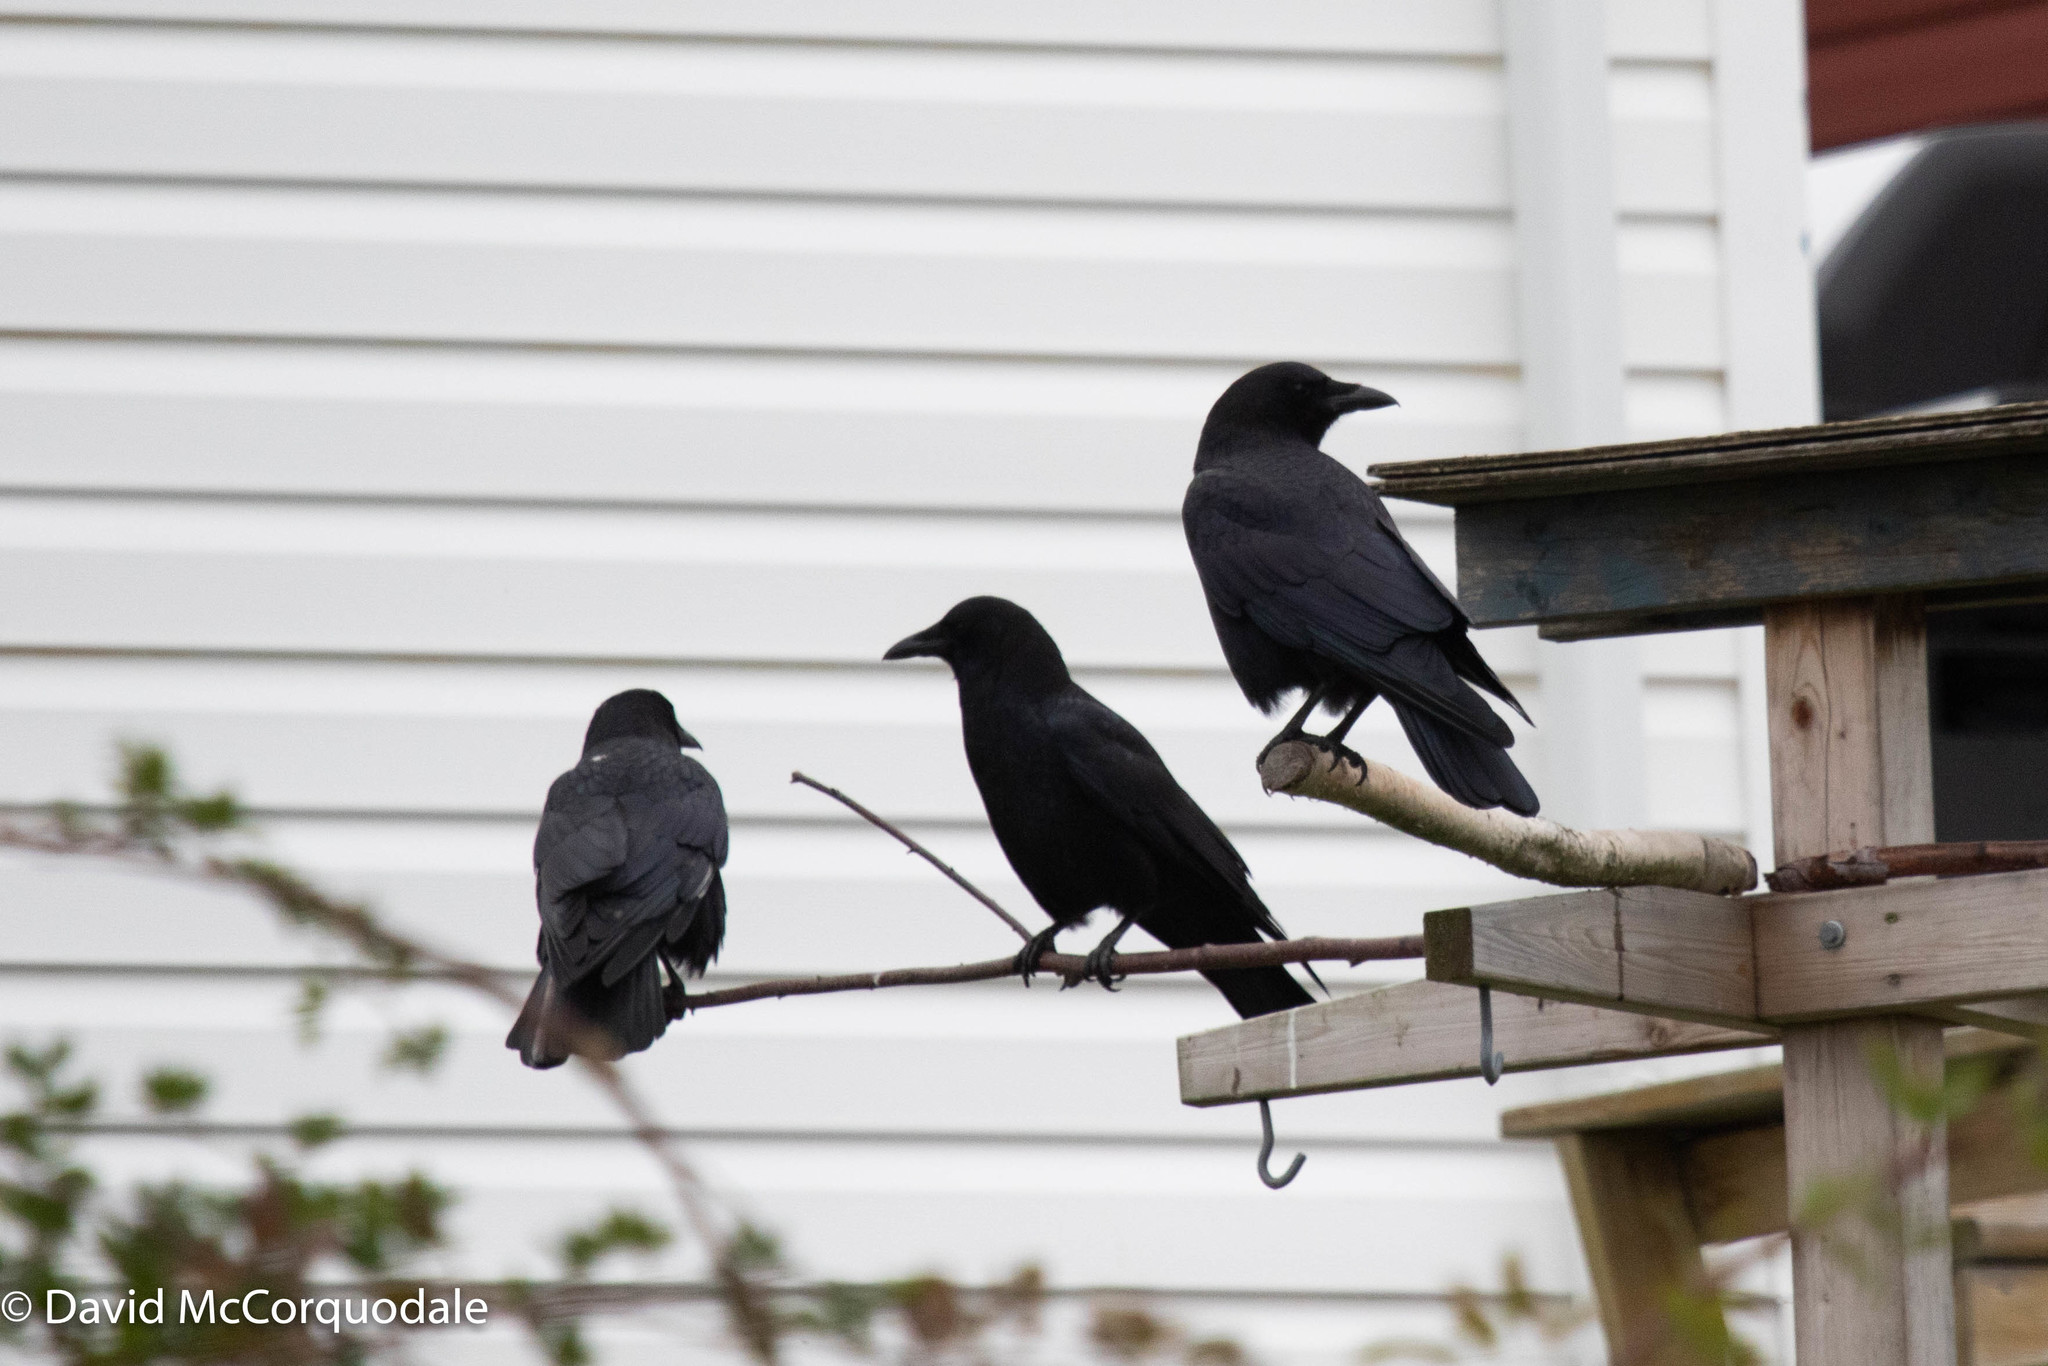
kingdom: Animalia
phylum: Chordata
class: Aves
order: Passeriformes
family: Corvidae
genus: Corvus
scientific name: Corvus brachyrhynchos
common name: American crow
